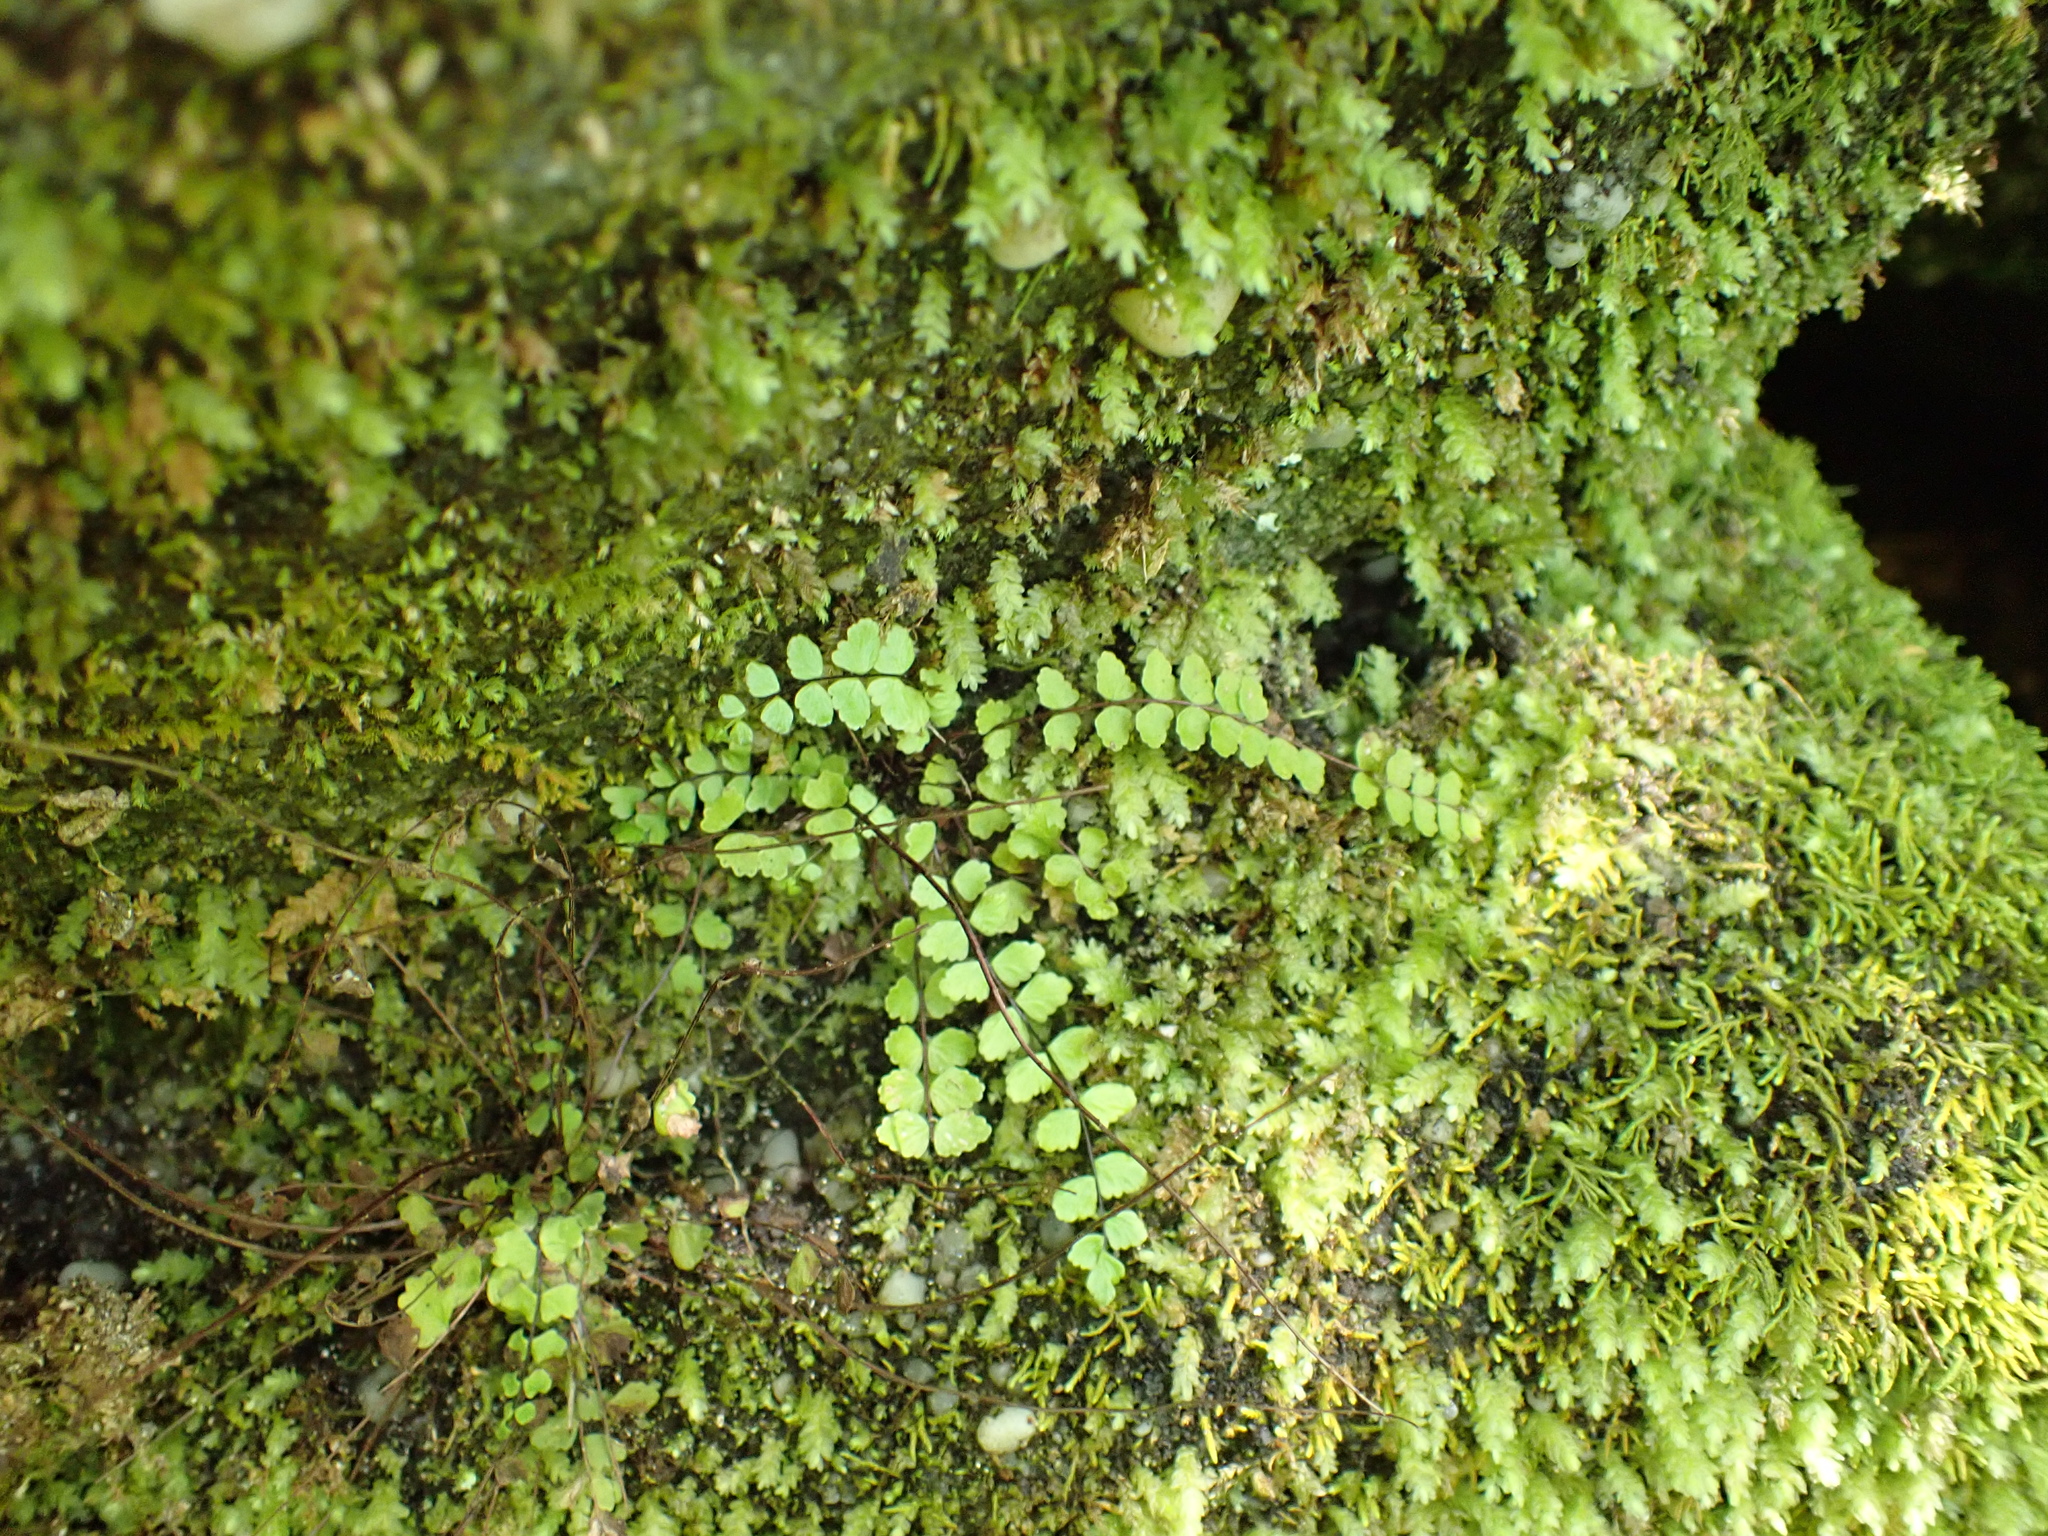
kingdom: Plantae
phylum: Tracheophyta
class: Polypodiopsida
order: Polypodiales
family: Aspleniaceae
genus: Asplenium
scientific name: Asplenium trichomanes
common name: Maidenhair spleenwort
